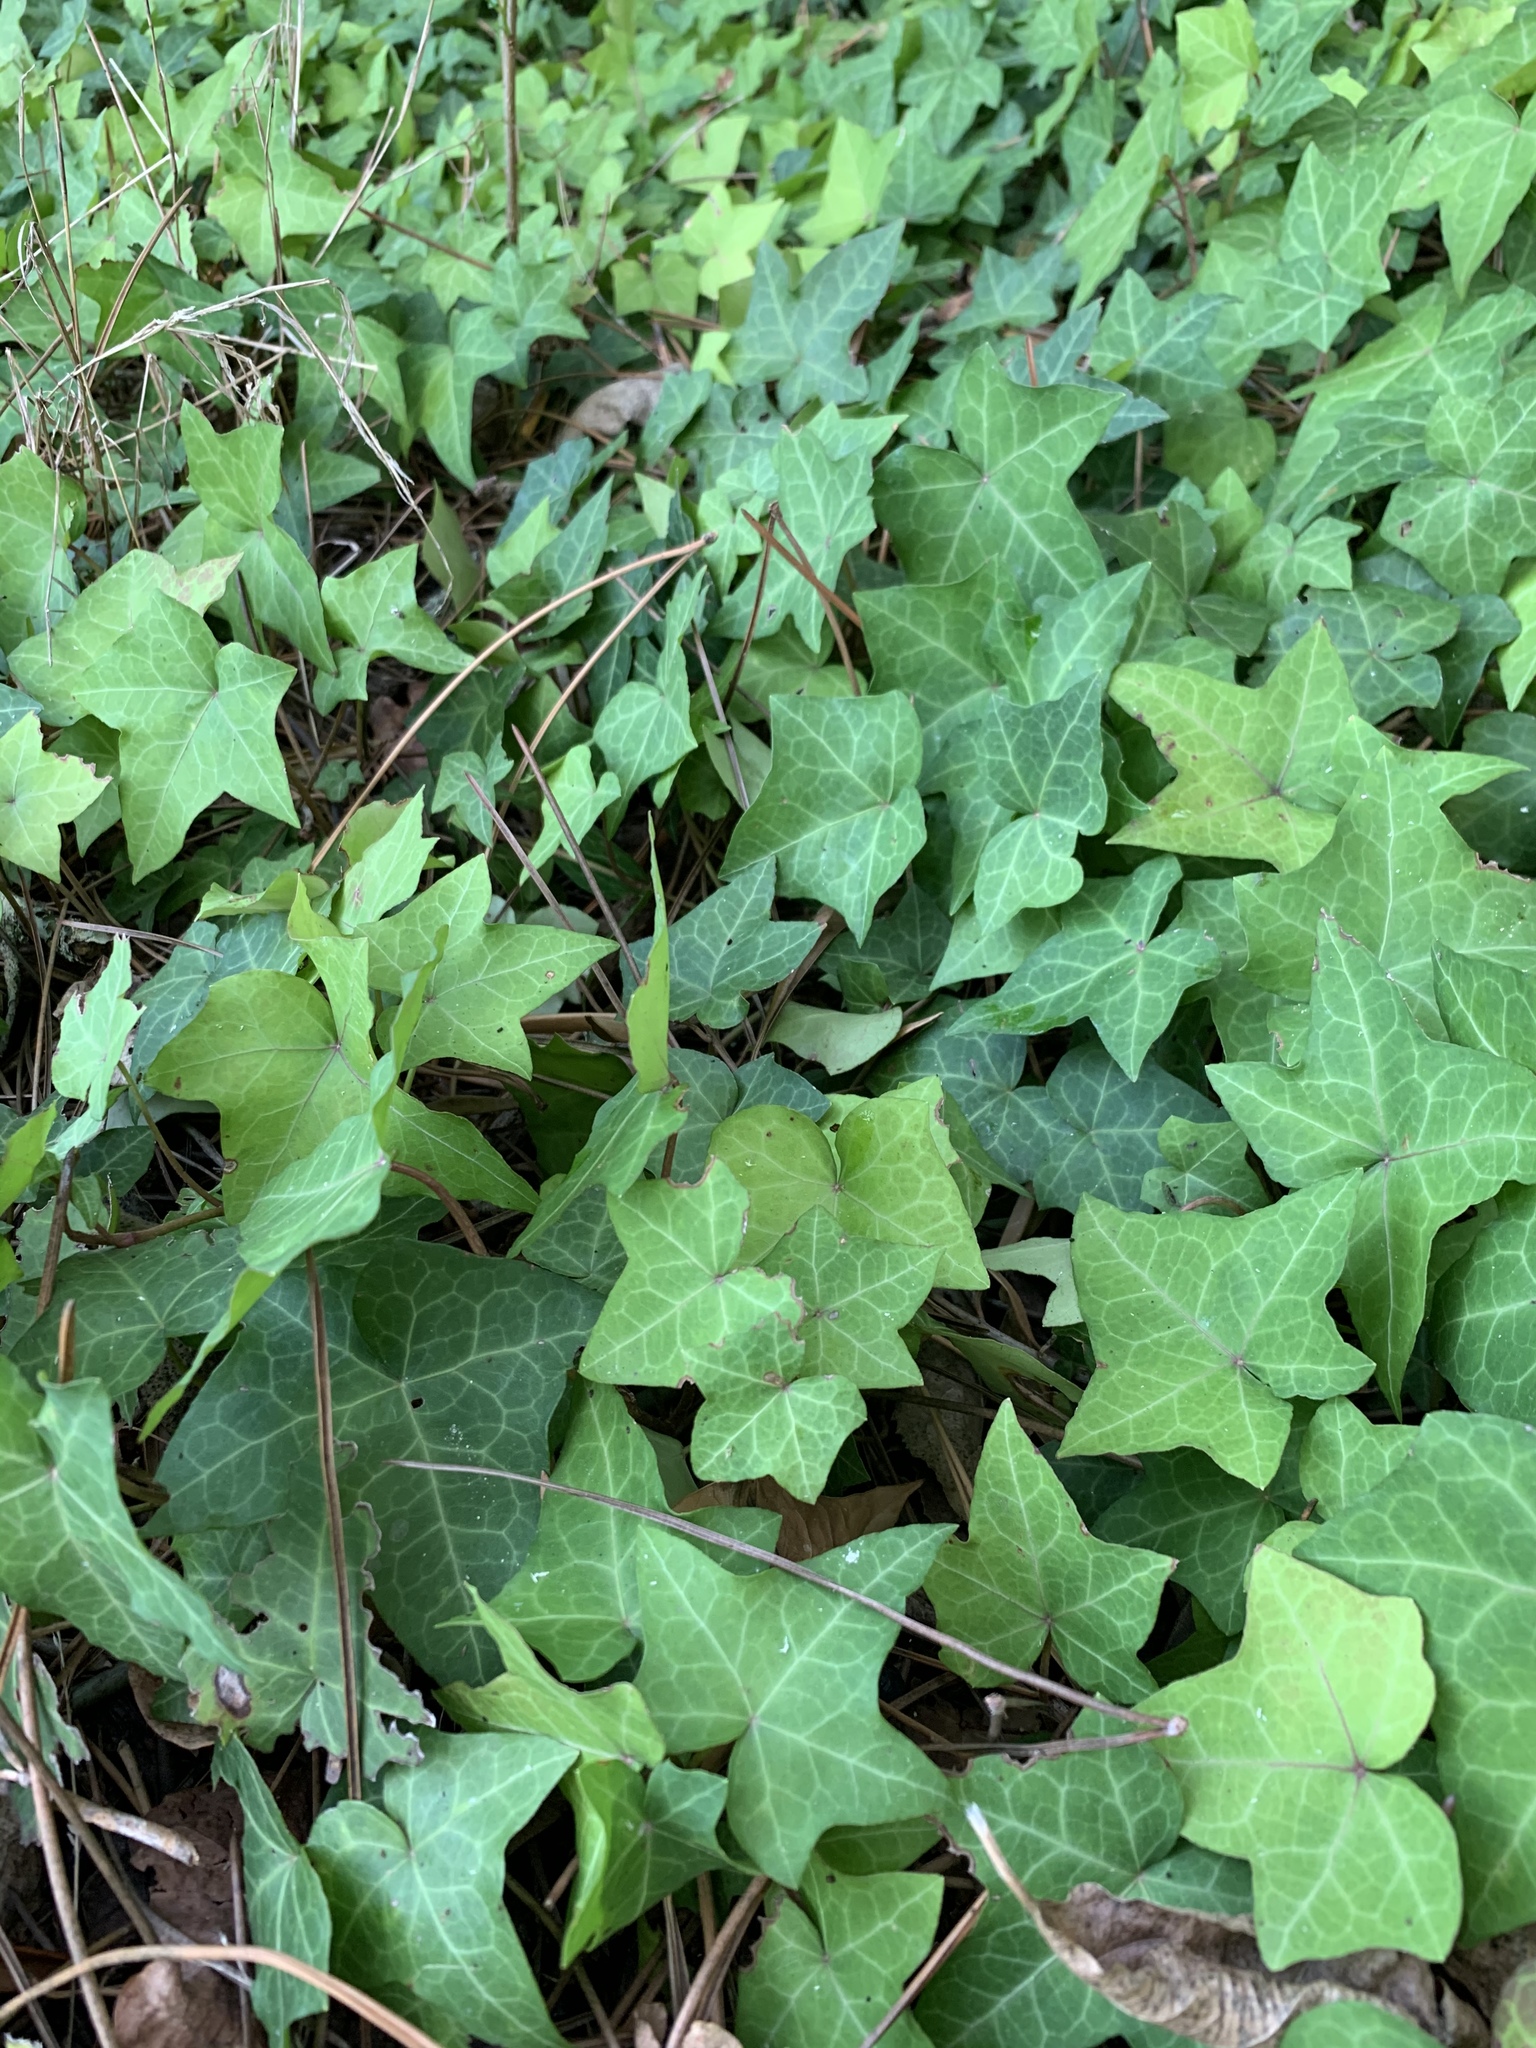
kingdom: Plantae
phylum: Tracheophyta
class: Magnoliopsida
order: Apiales
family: Araliaceae
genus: Hedera
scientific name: Hedera helix
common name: Ivy
